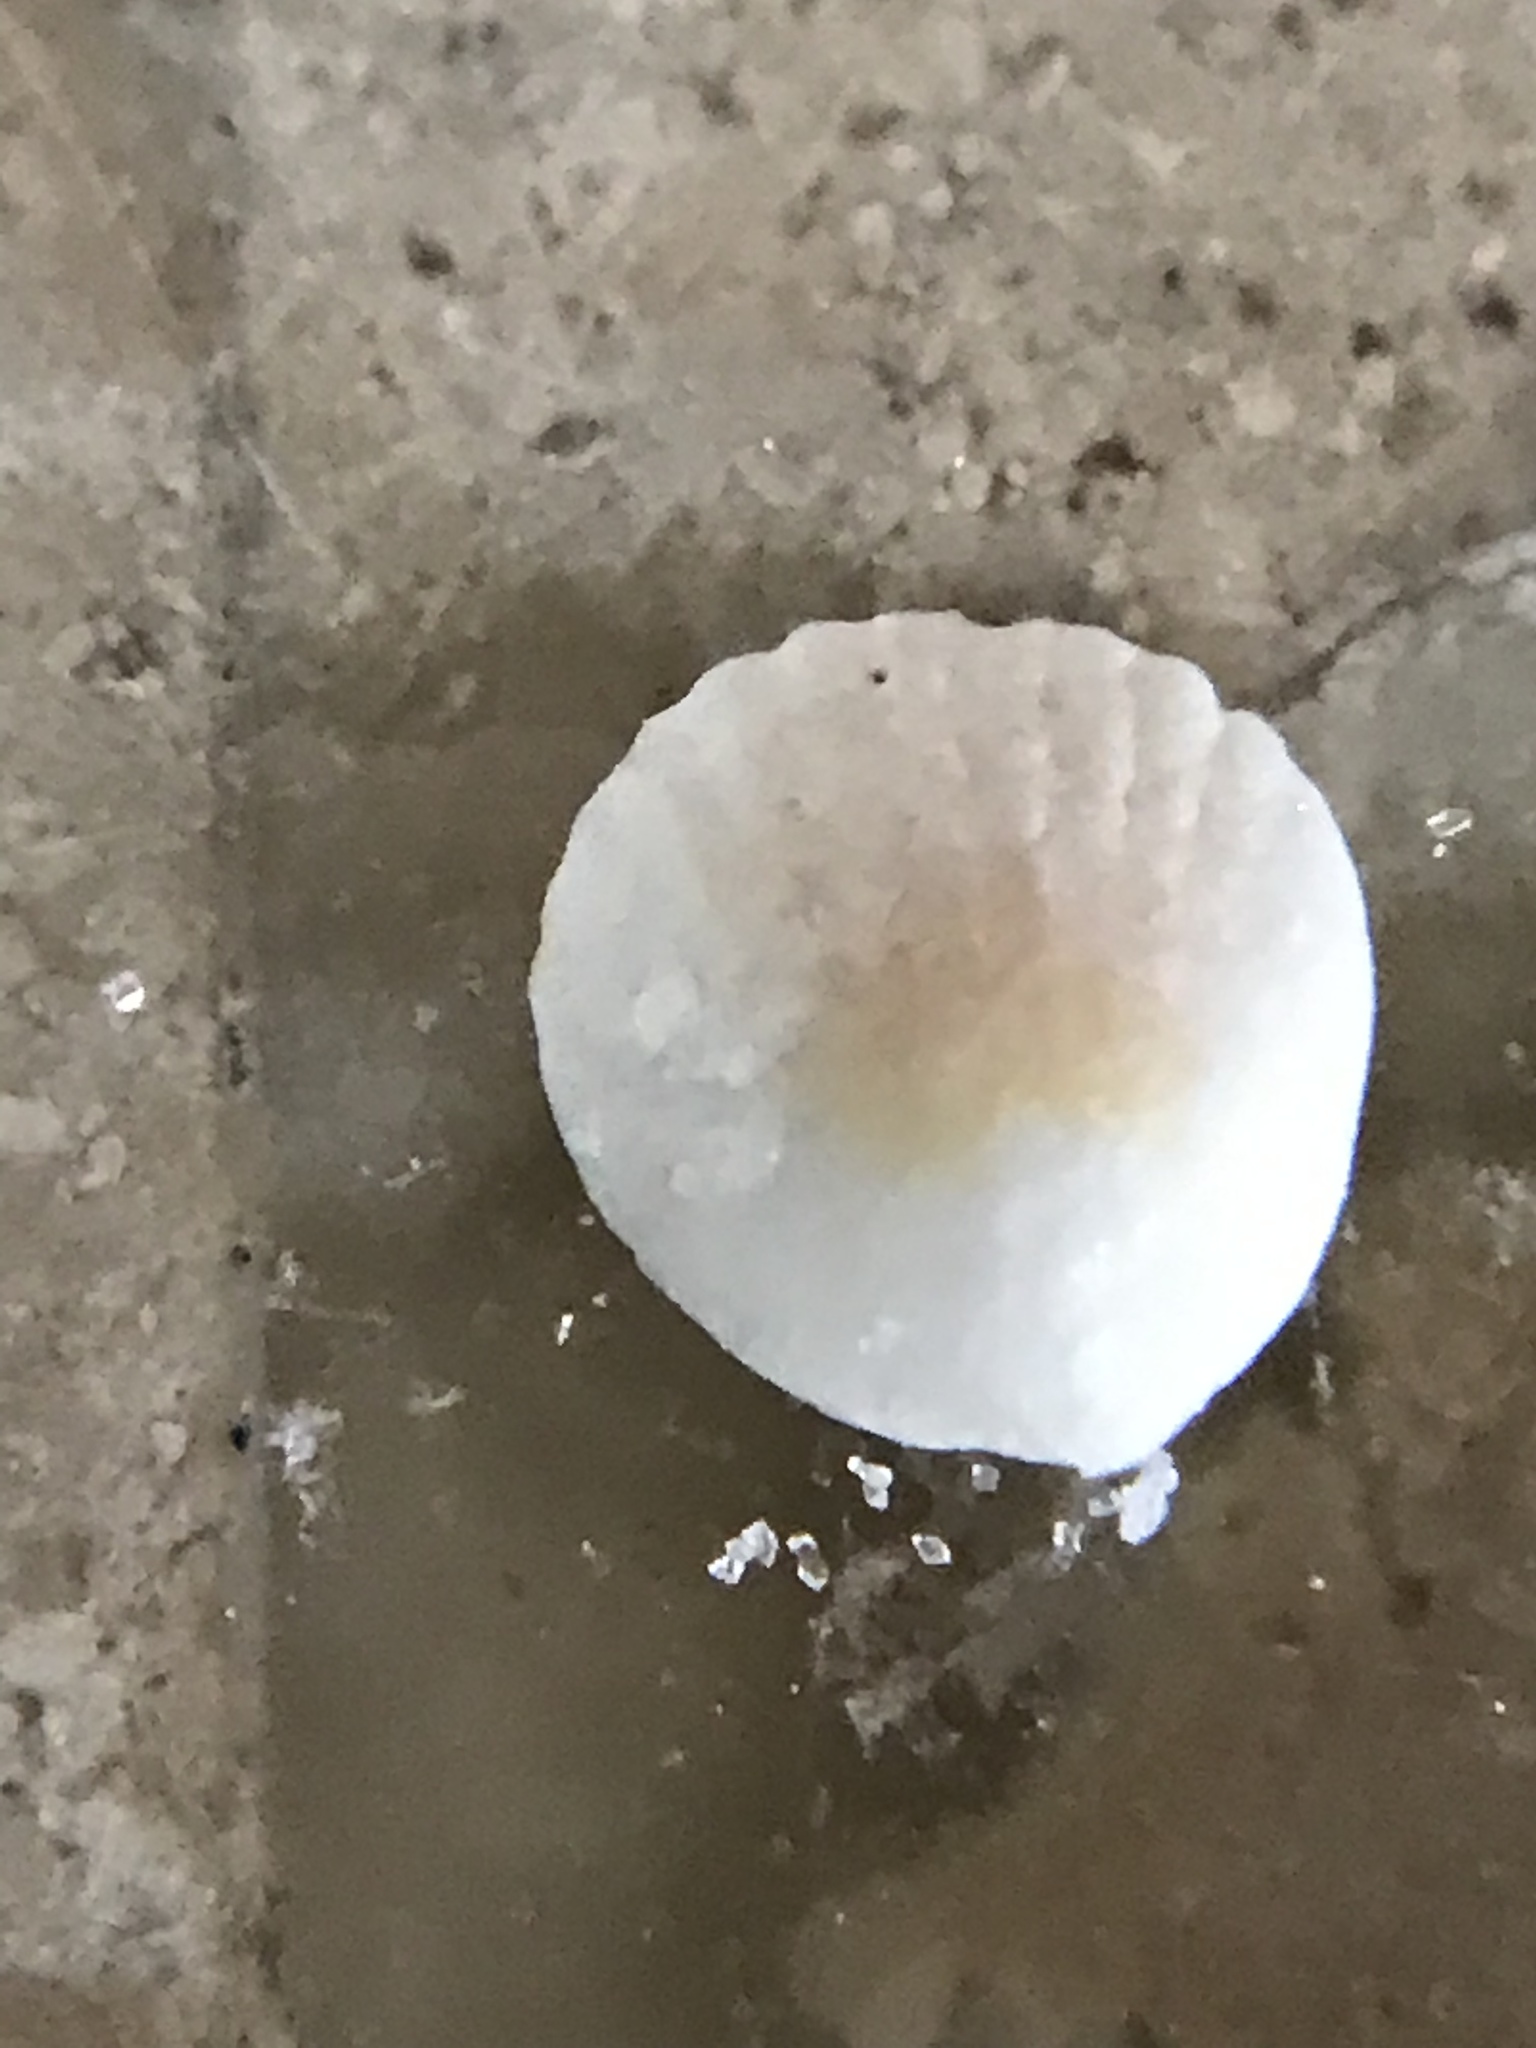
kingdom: Animalia
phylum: Mollusca
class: Bivalvia
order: Arcida
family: Glycymerididae
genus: Tucetona
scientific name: Tucetona pectinata
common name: Comb bittersweet
